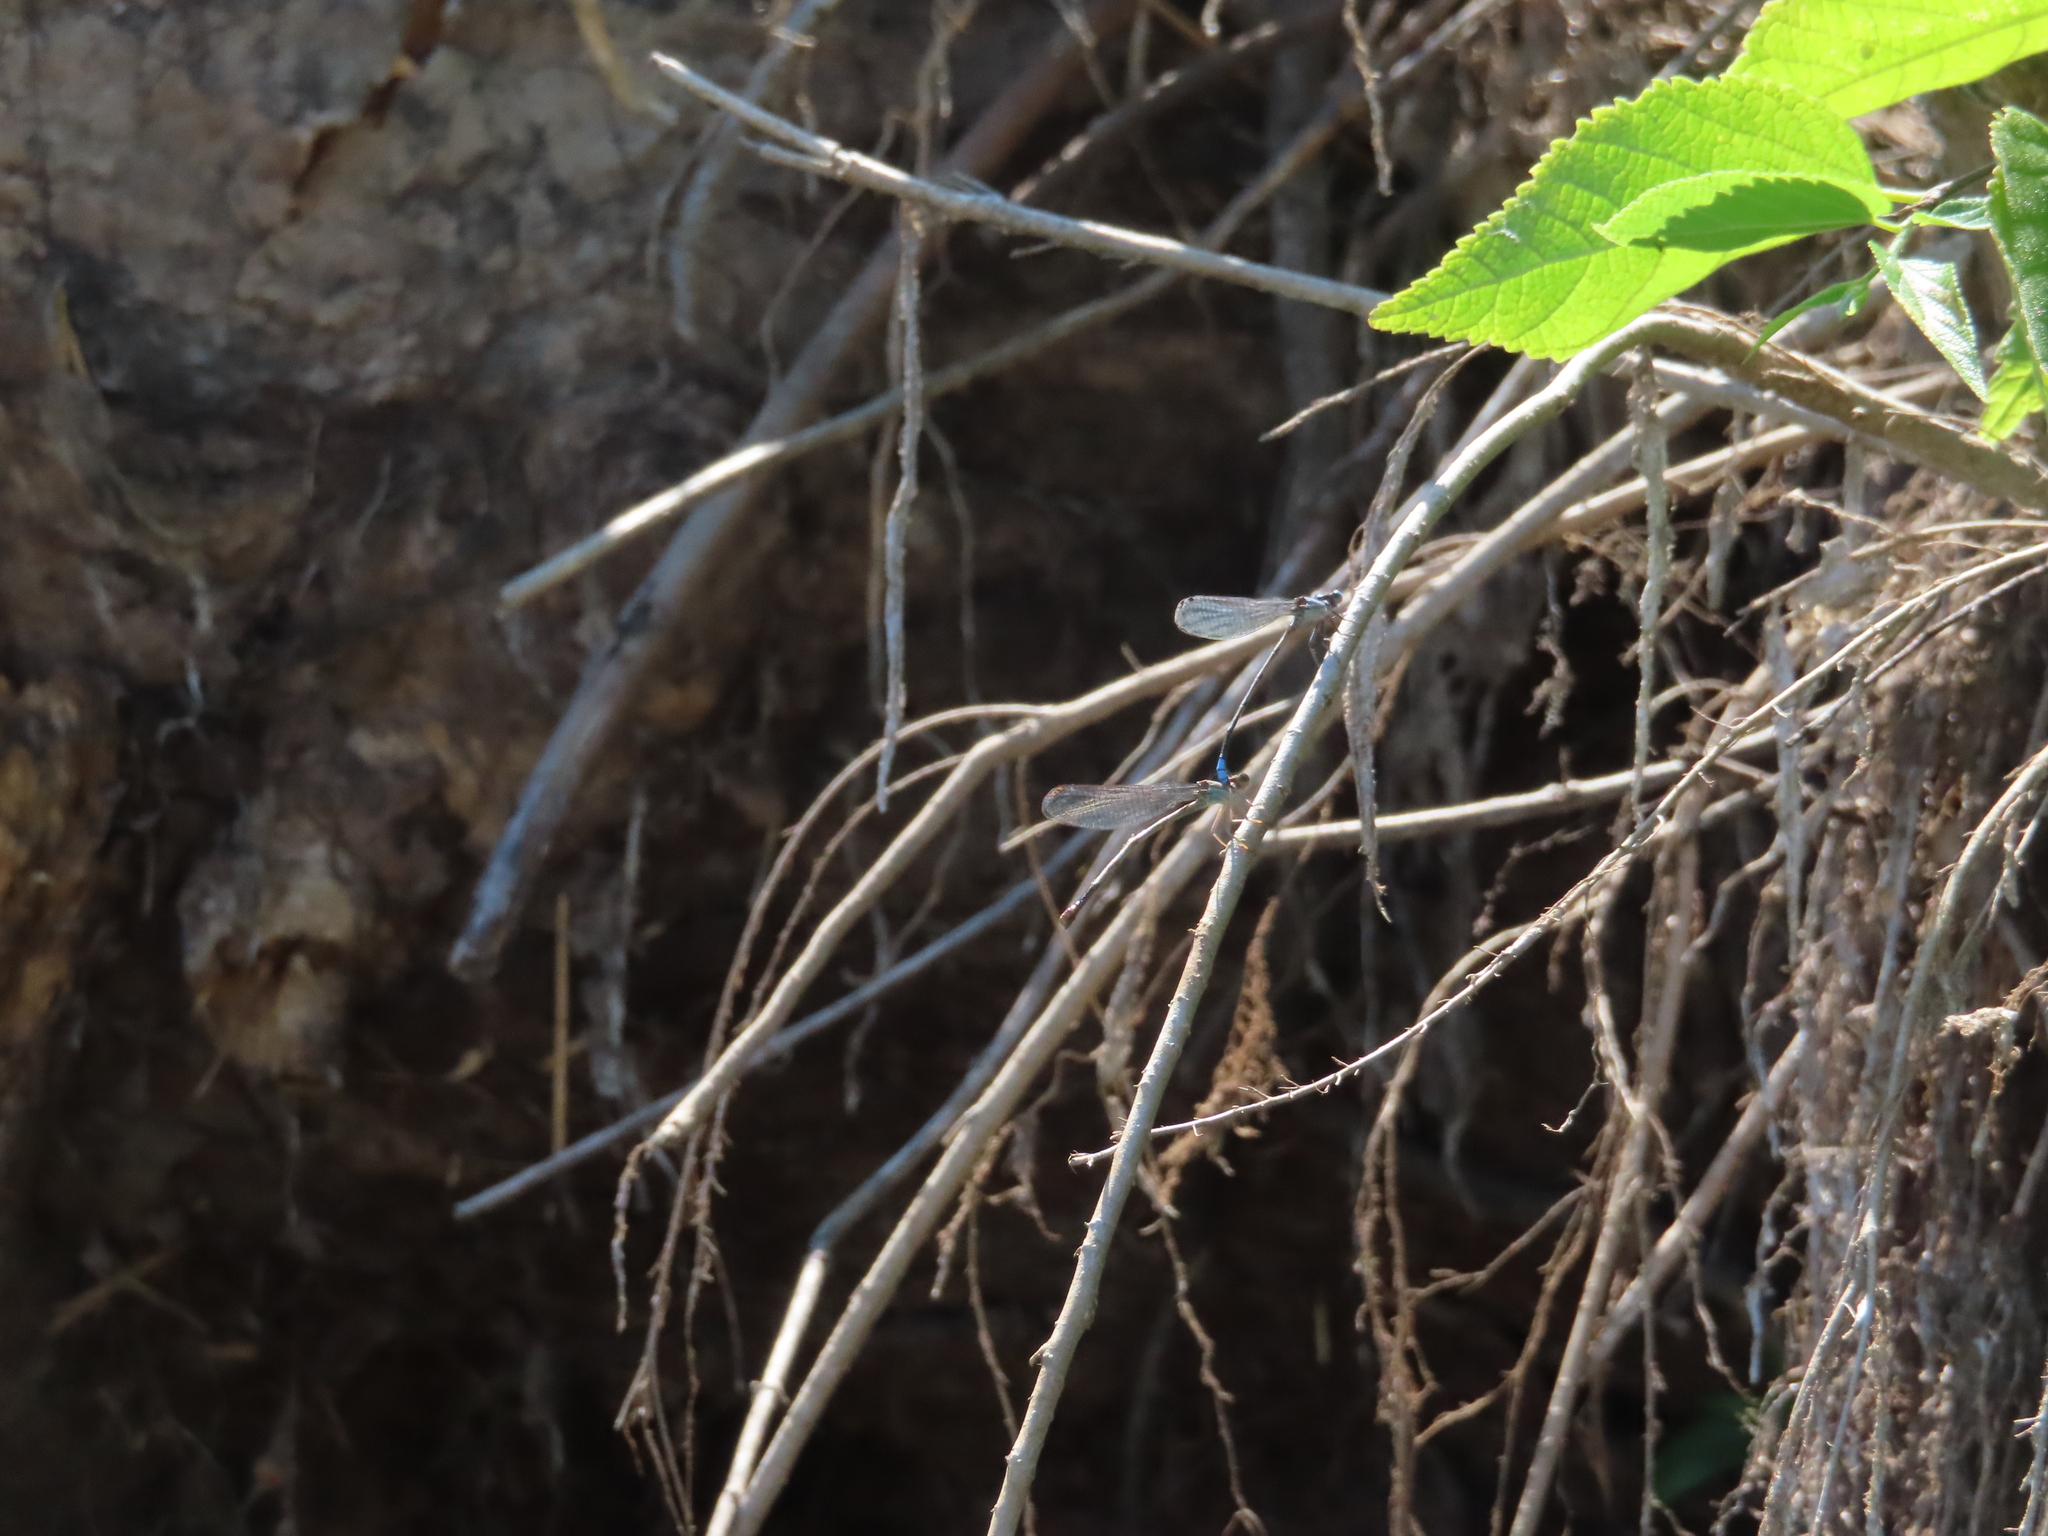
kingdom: Animalia
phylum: Arthropoda
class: Insecta
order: Odonata
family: Coenagrionidae
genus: Argia
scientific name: Argia apicalis
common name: Blue-fronted dancer
